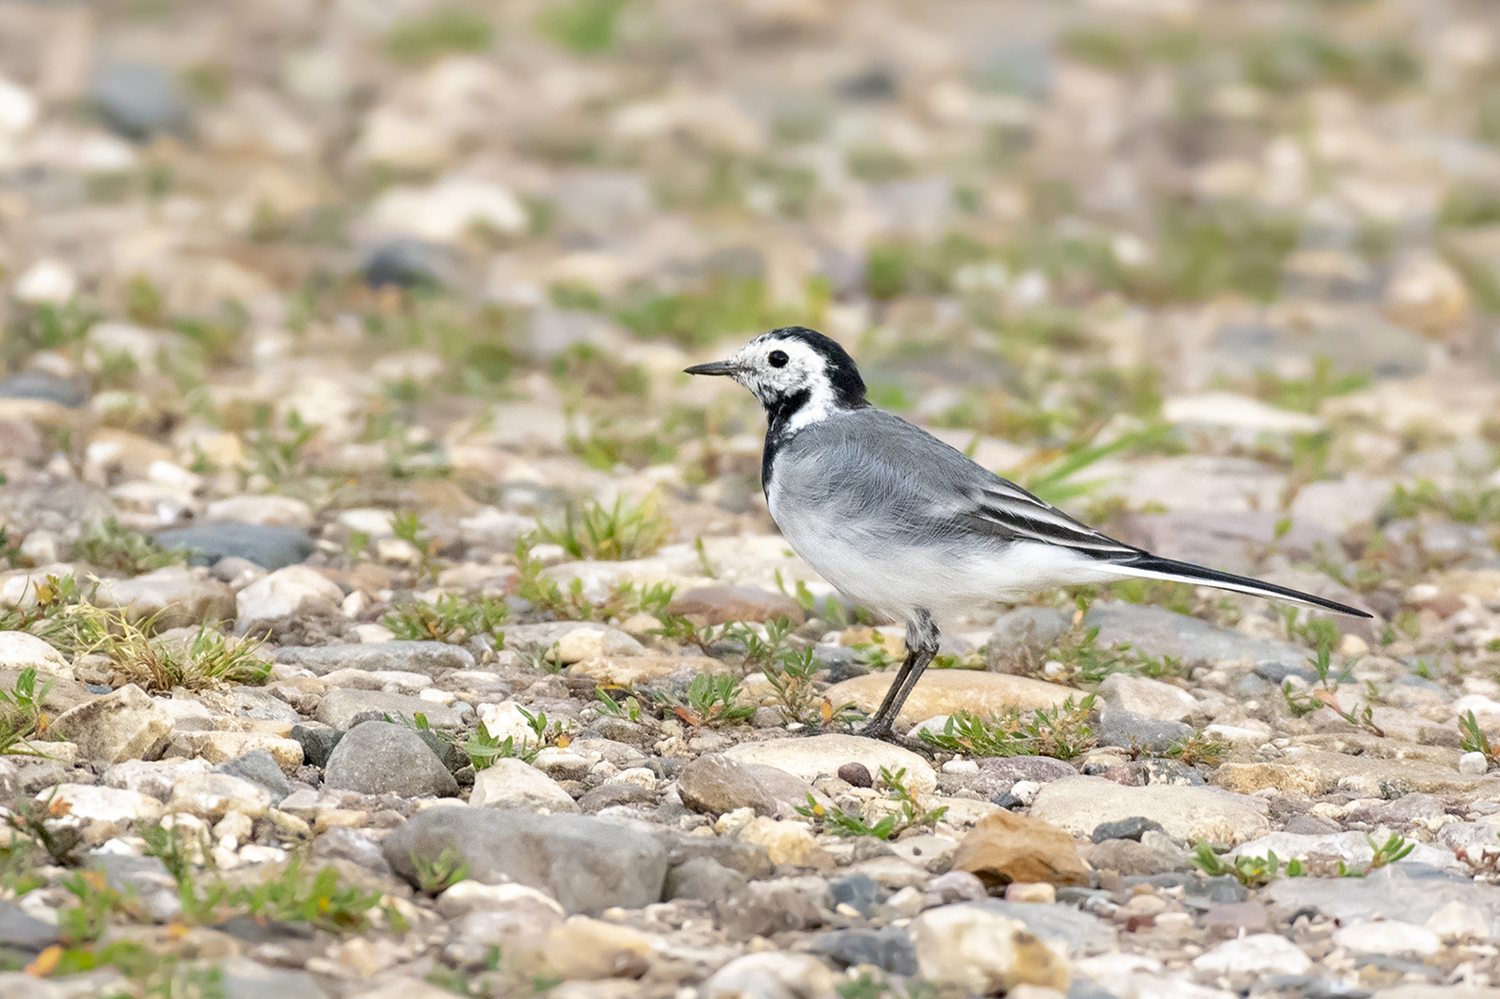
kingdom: Animalia
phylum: Chordata
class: Aves
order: Passeriformes
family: Motacillidae
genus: Motacilla
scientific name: Motacilla alba
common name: White wagtail
